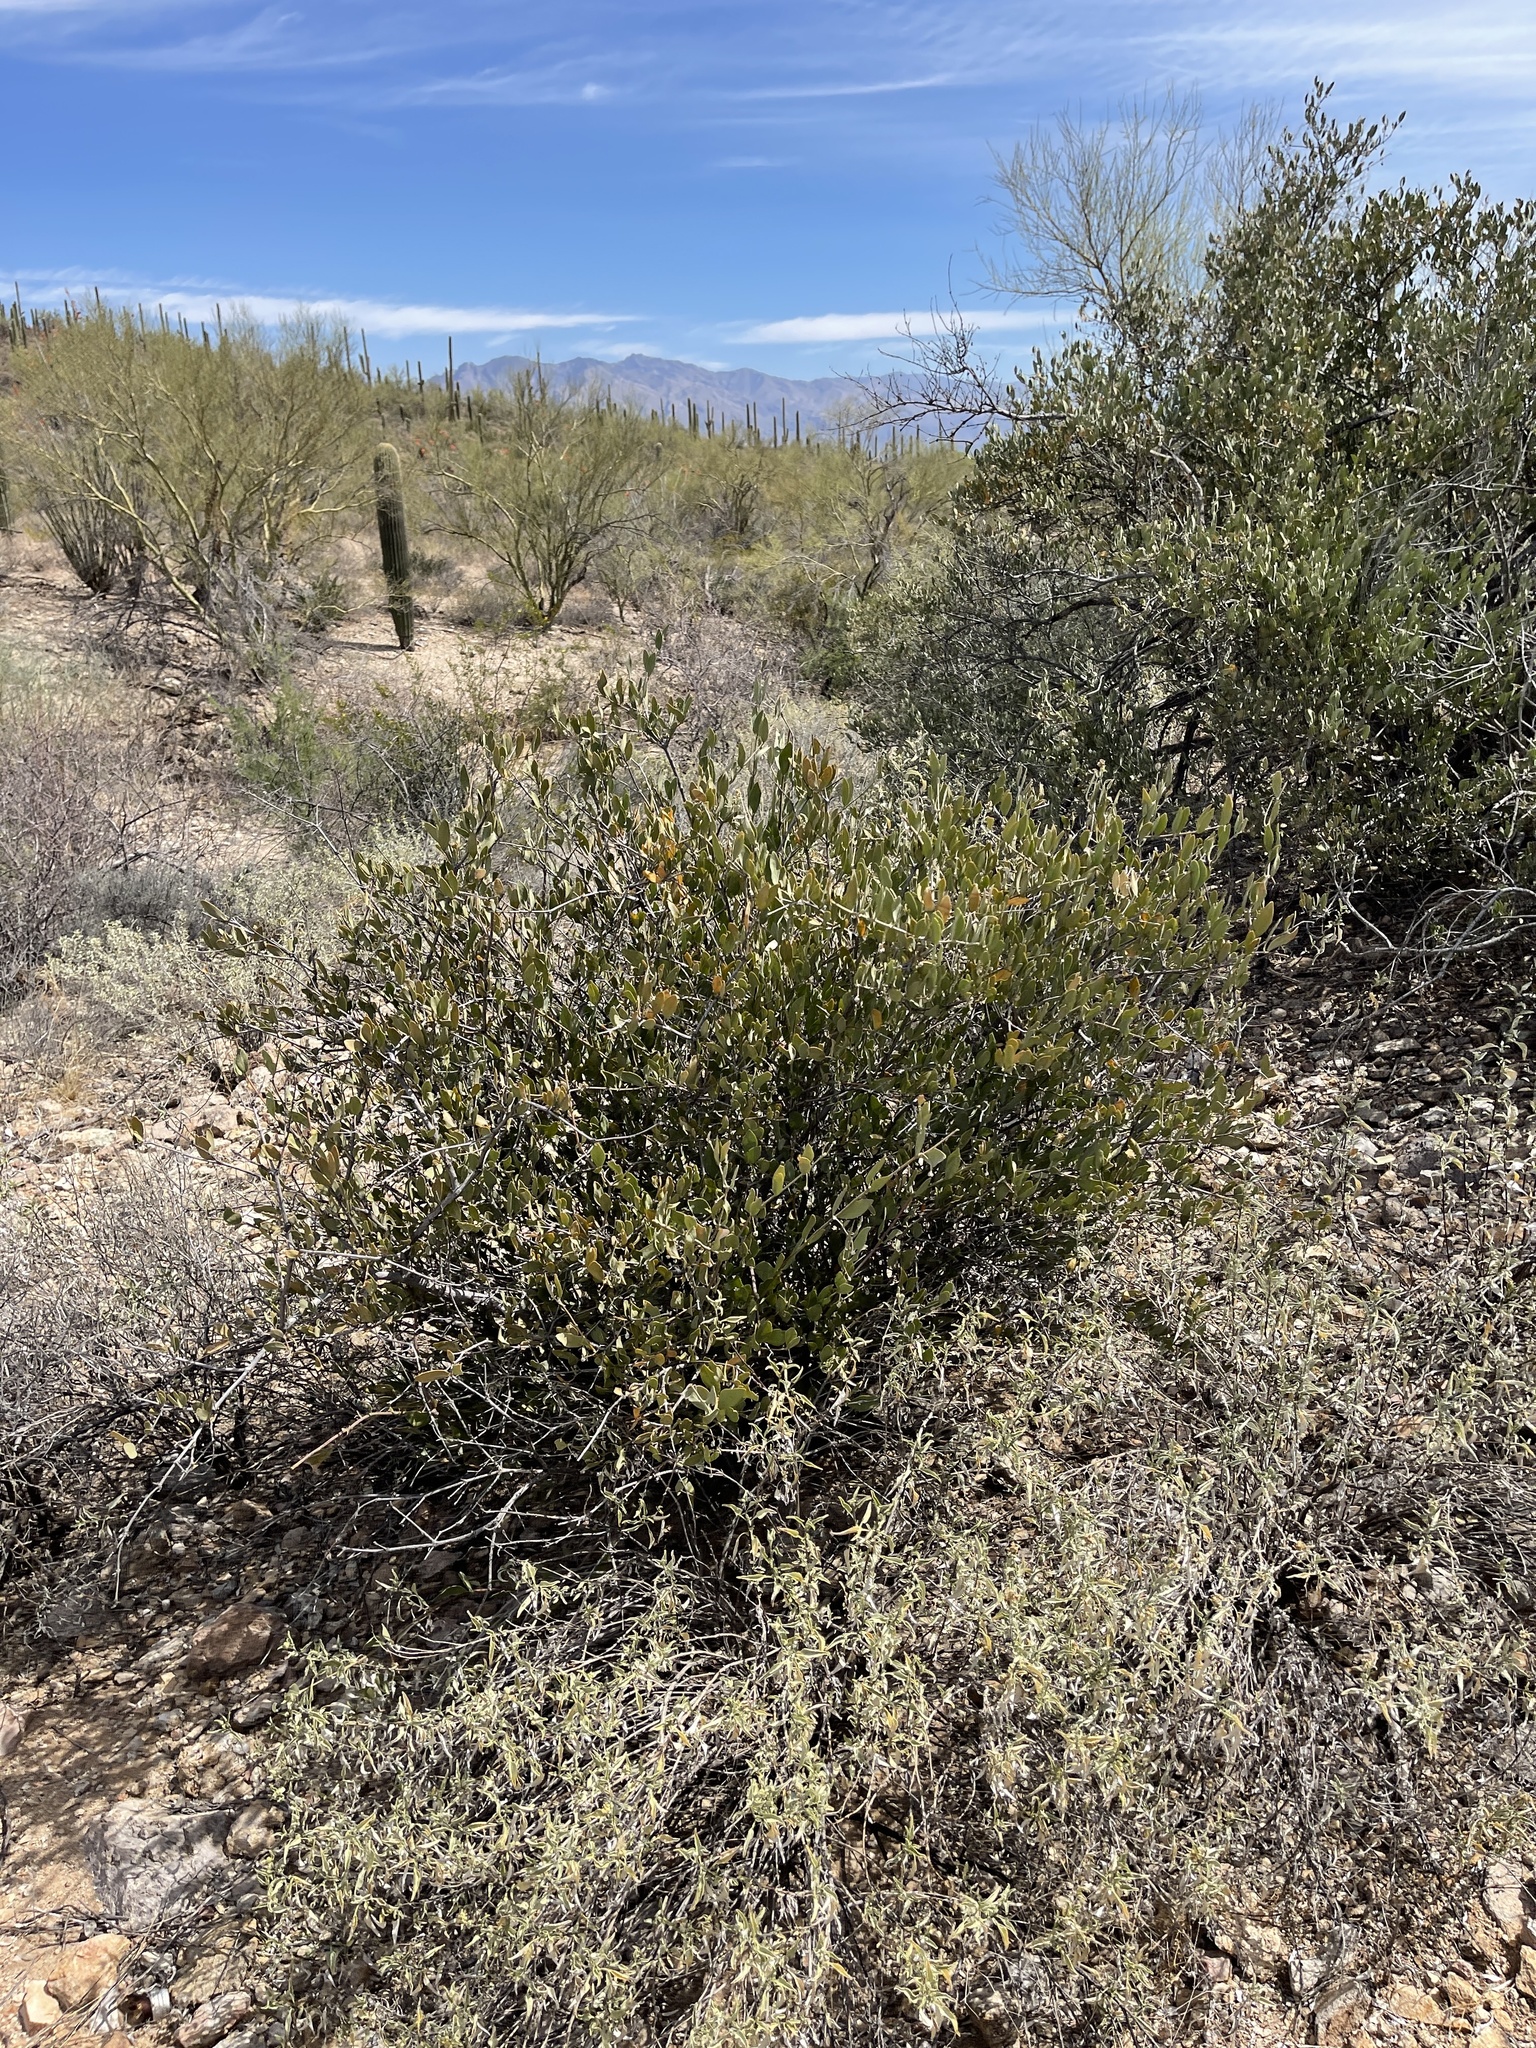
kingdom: Plantae
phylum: Tracheophyta
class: Magnoliopsida
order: Caryophyllales
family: Simmondsiaceae
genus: Simmondsia
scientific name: Simmondsia chinensis
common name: Jojoba
